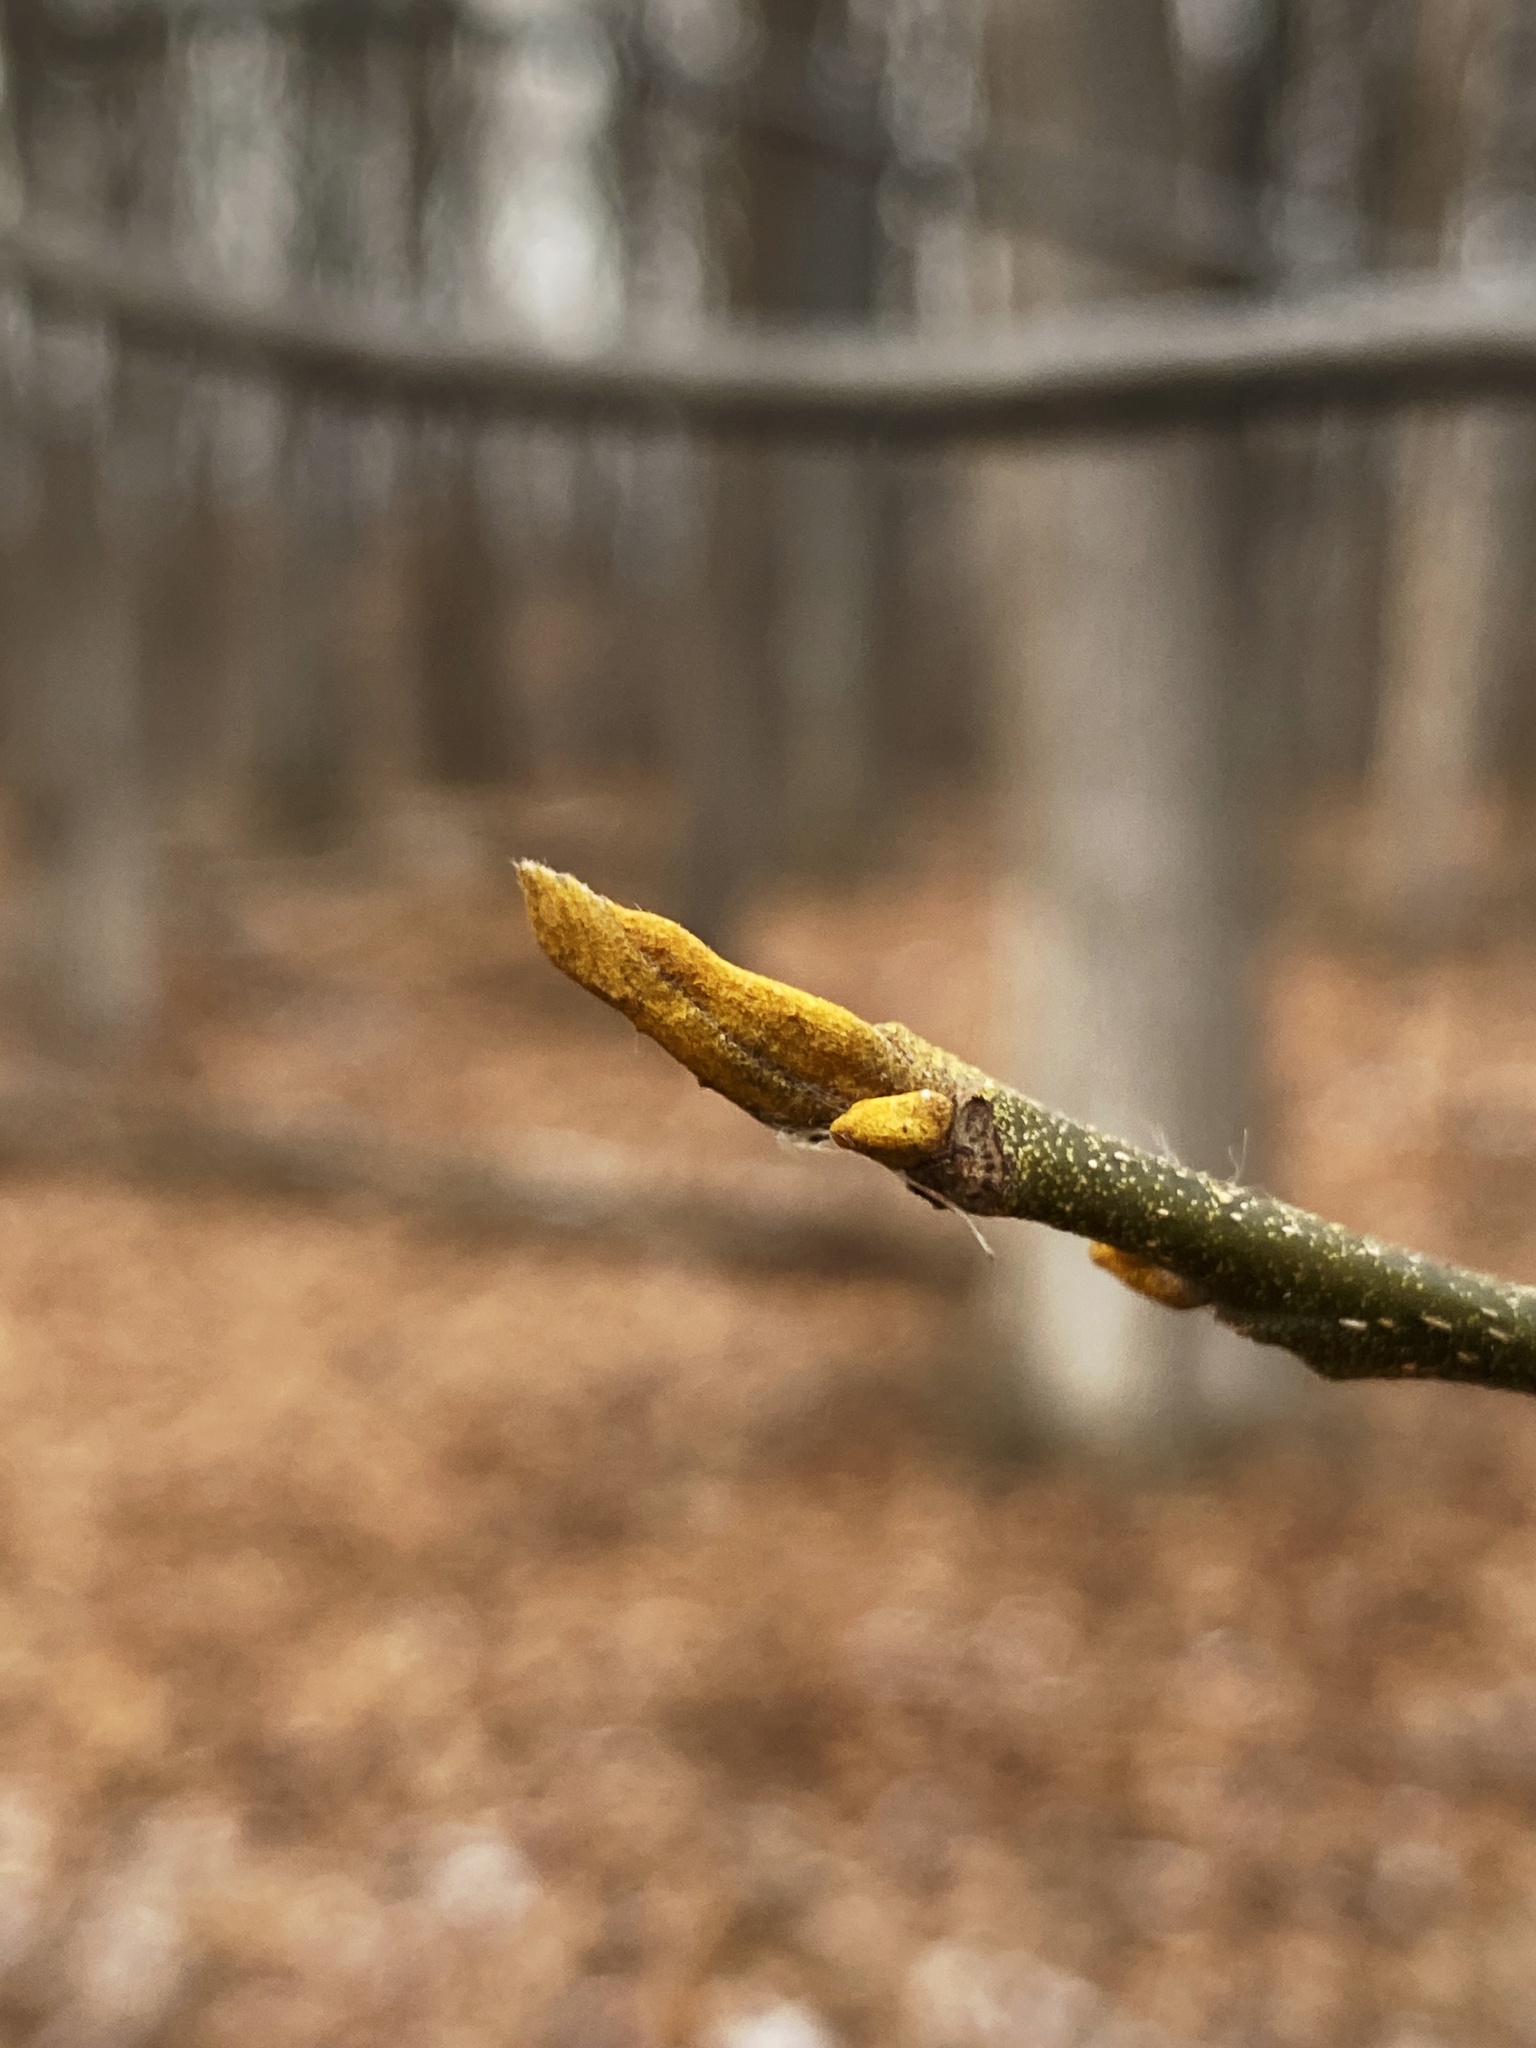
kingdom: Plantae
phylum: Tracheophyta
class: Magnoliopsida
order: Fagales
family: Juglandaceae
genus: Carya
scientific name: Carya cordiformis
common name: Bitternut hickory
